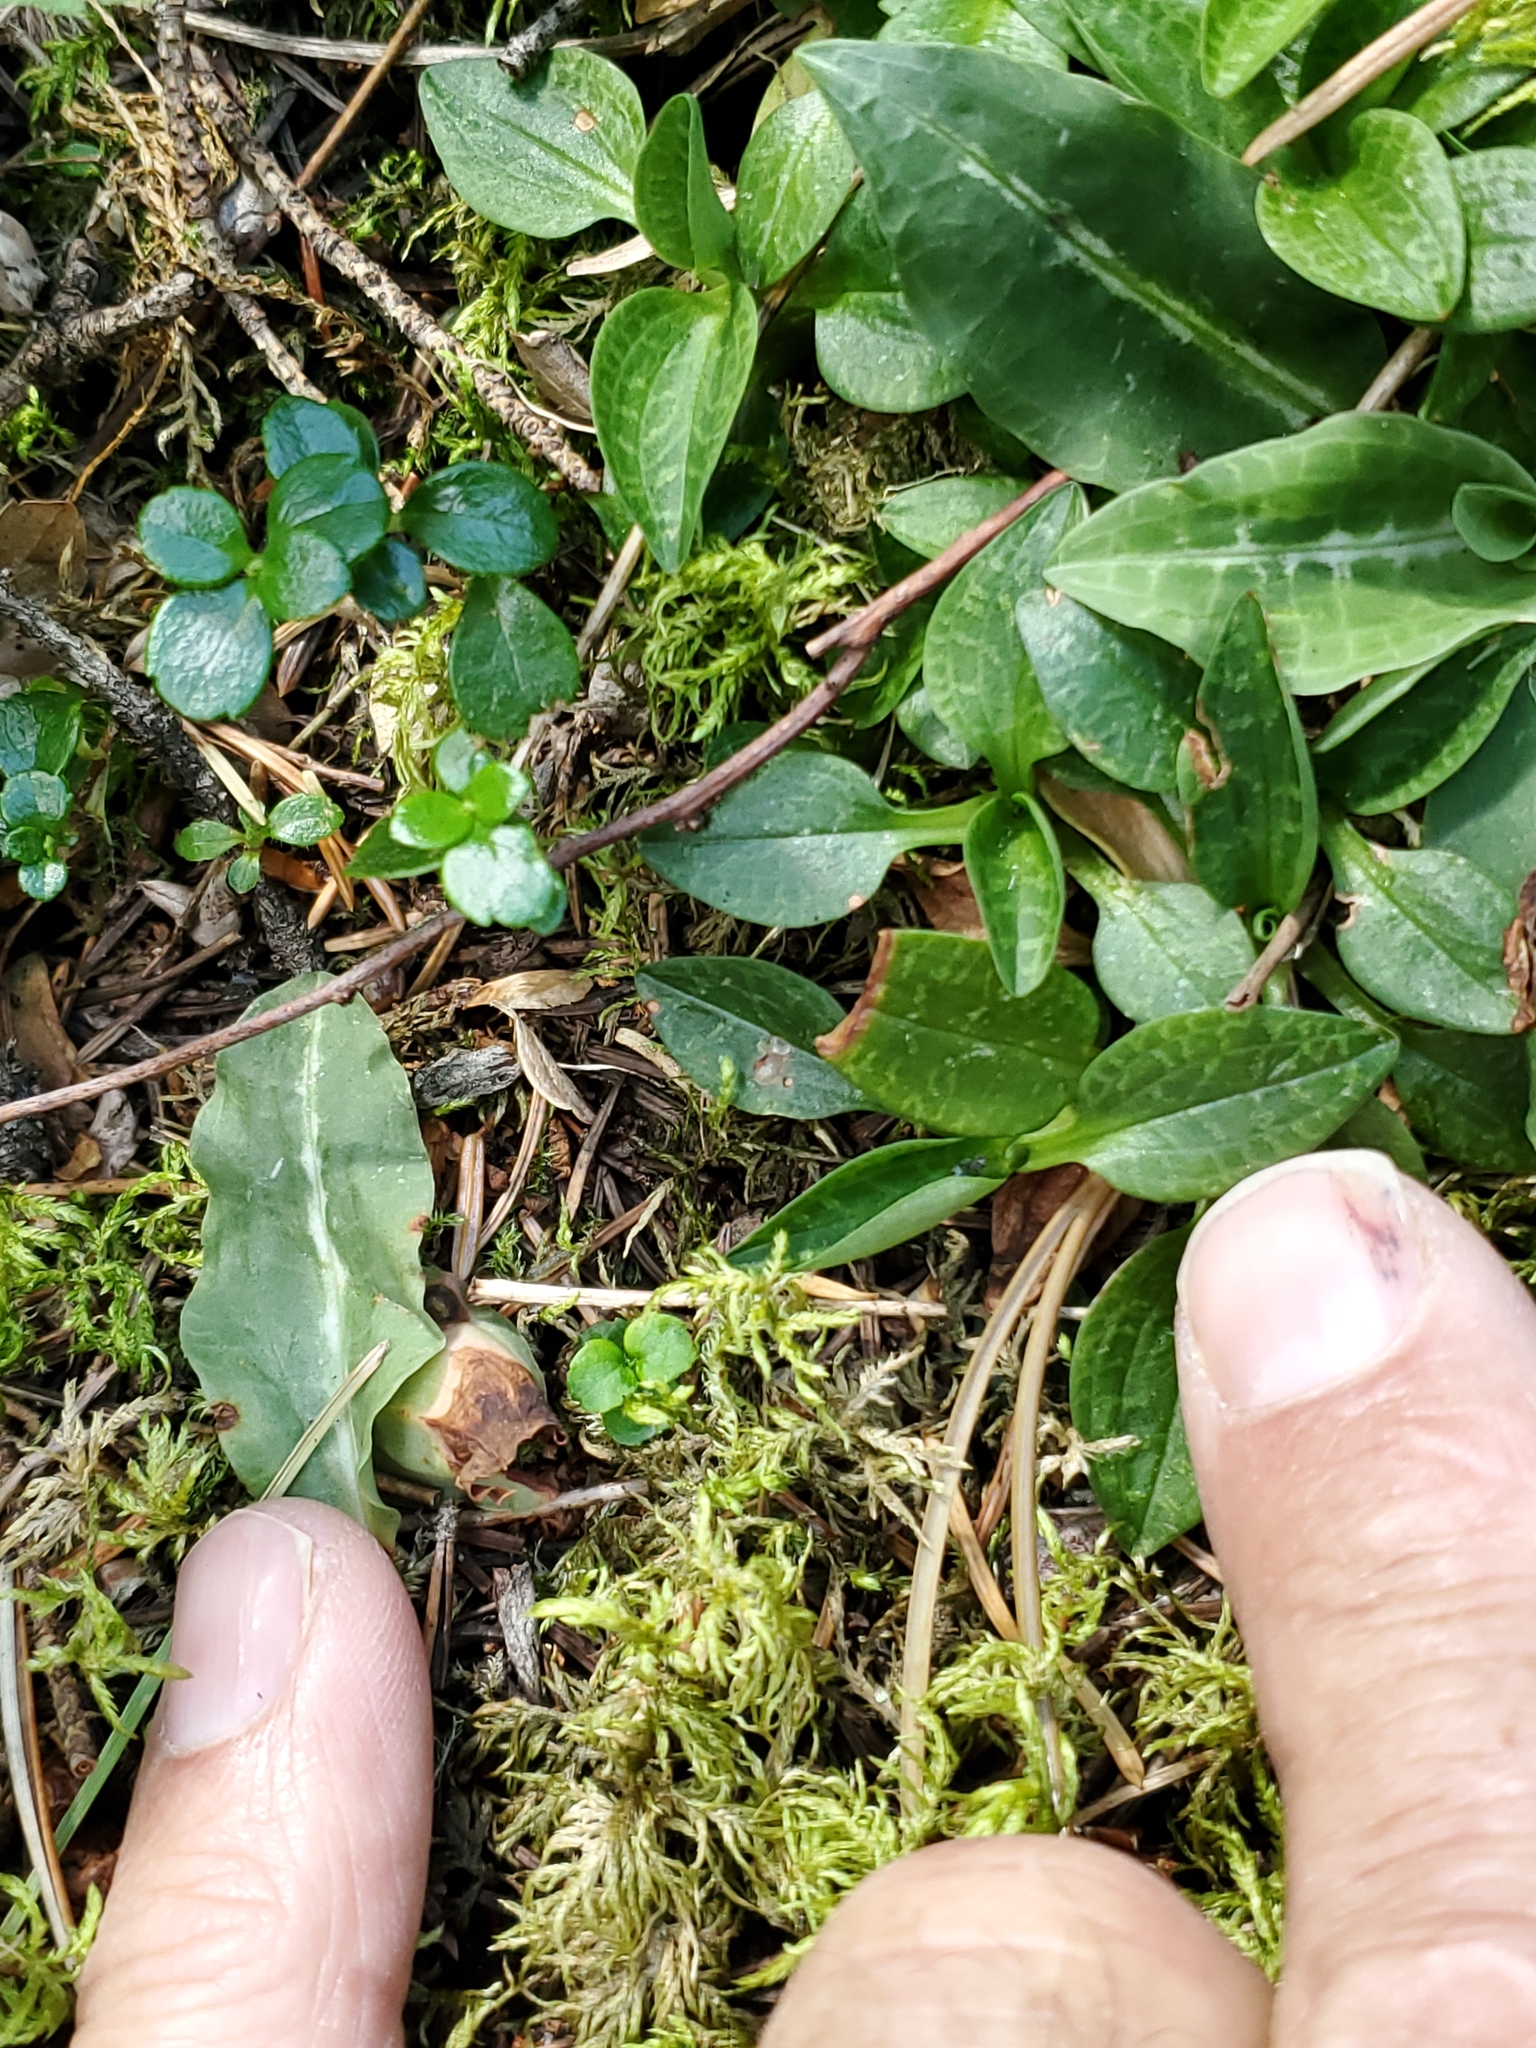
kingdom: Plantae
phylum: Tracheophyta
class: Liliopsida
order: Asparagales
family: Orchidaceae
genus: Goodyera
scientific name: Goodyera repens
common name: Creeping lady's-tresses
